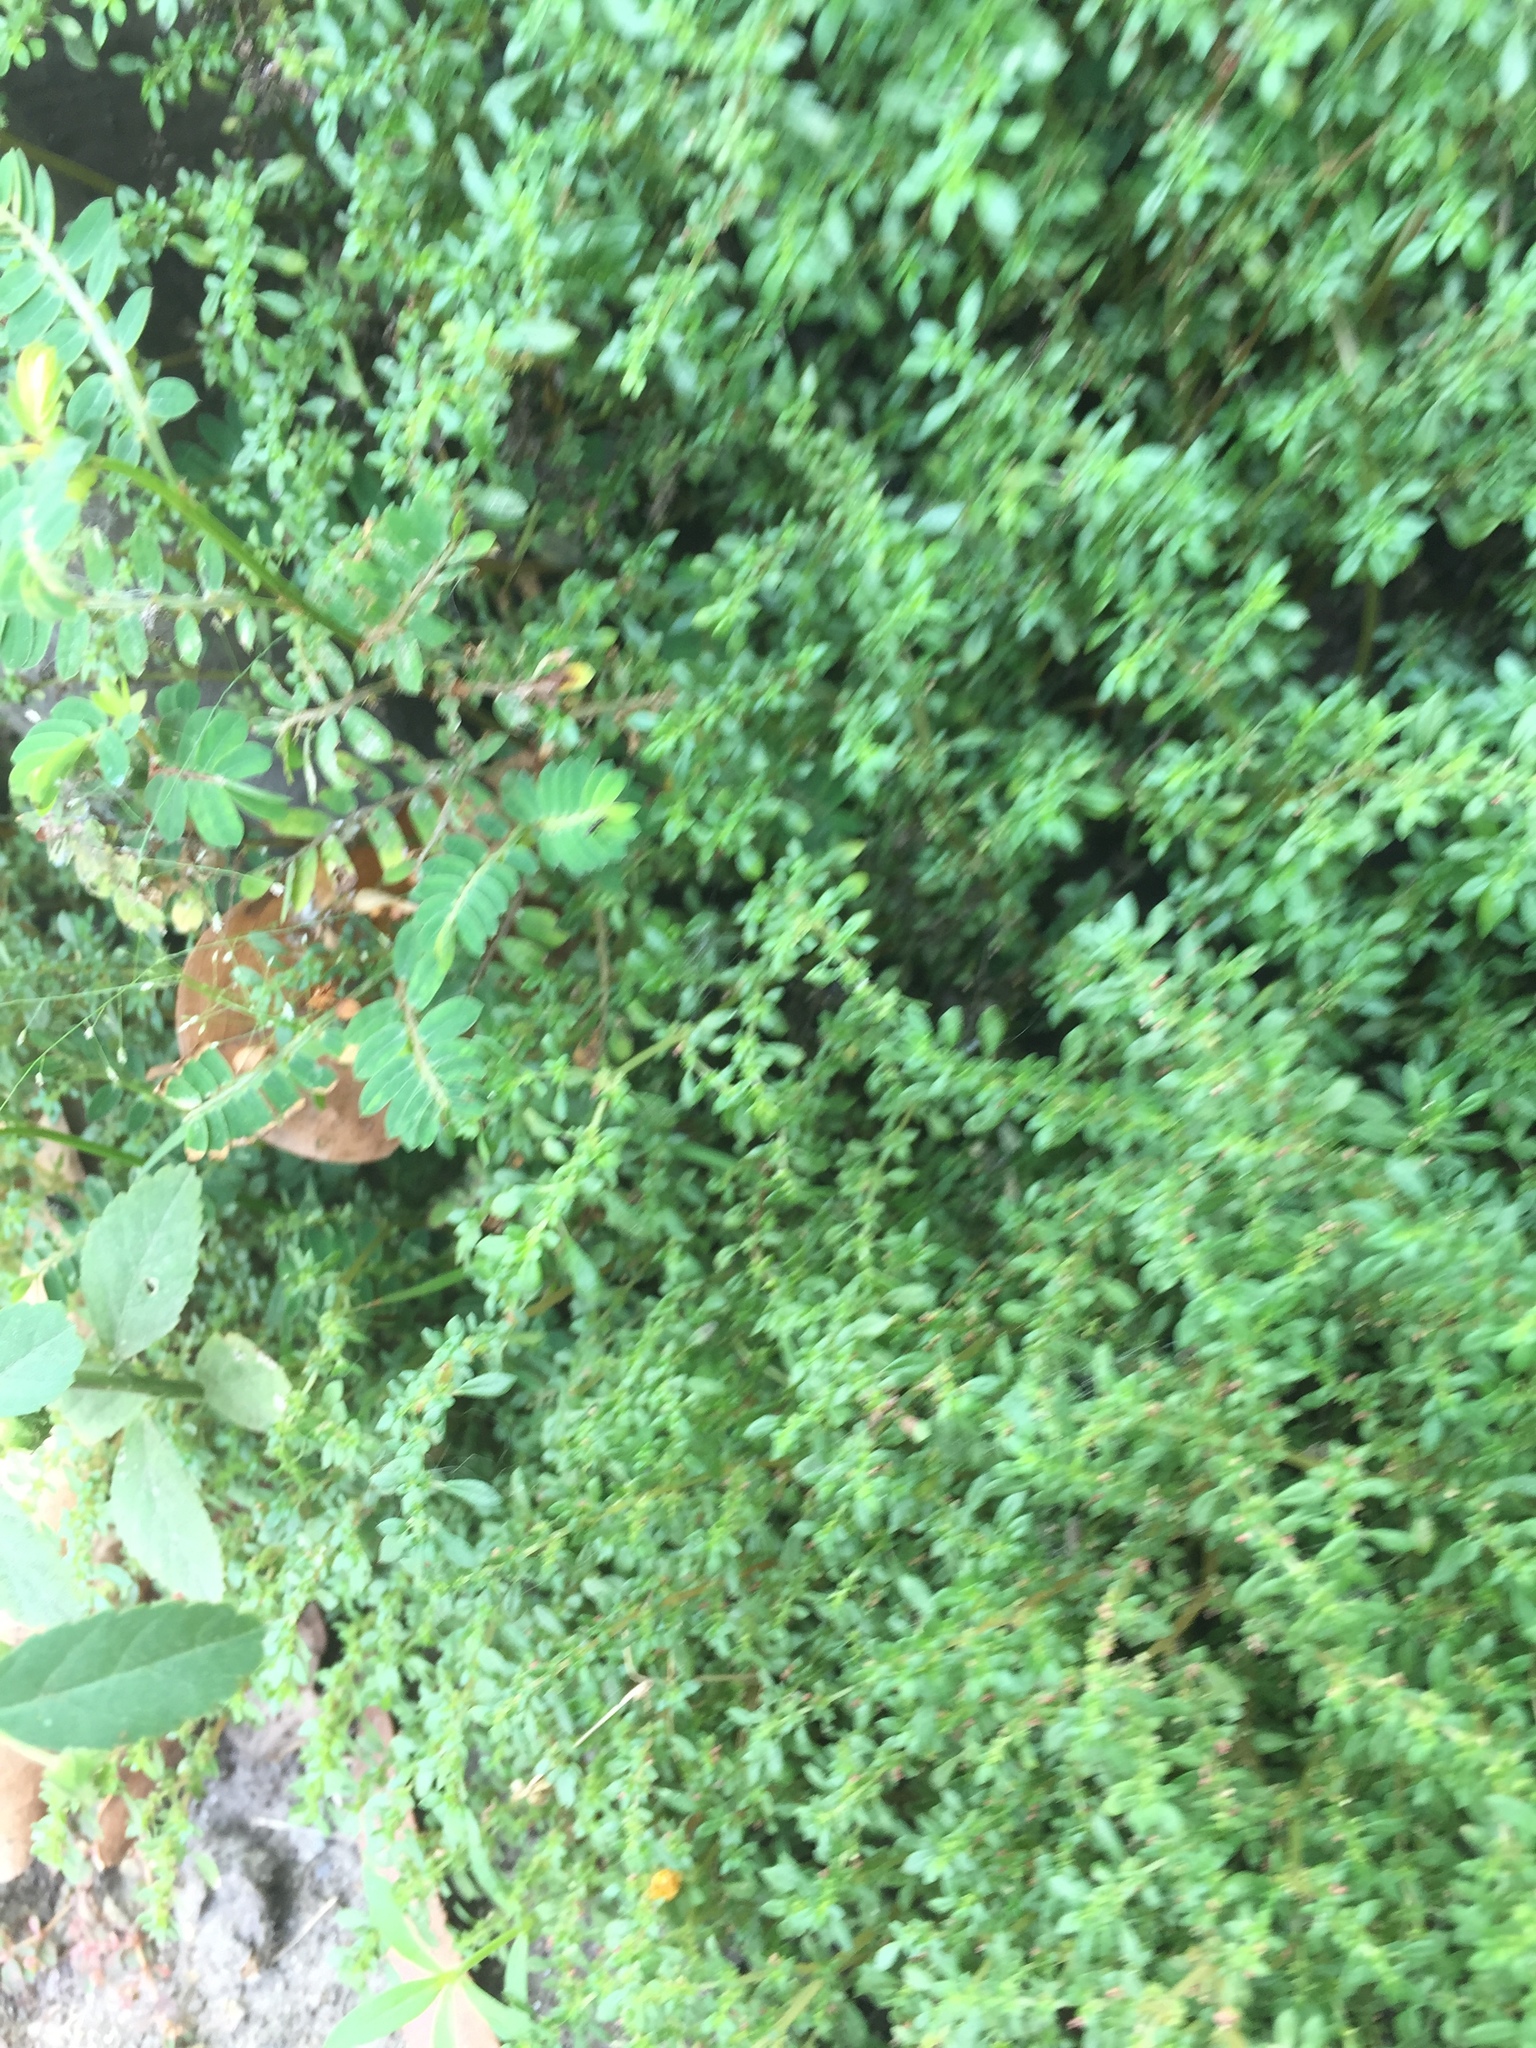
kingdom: Plantae
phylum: Tracheophyta
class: Magnoliopsida
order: Rosales
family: Urticaceae
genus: Pilea
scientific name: Pilea microphylla
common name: Artillery-plant
